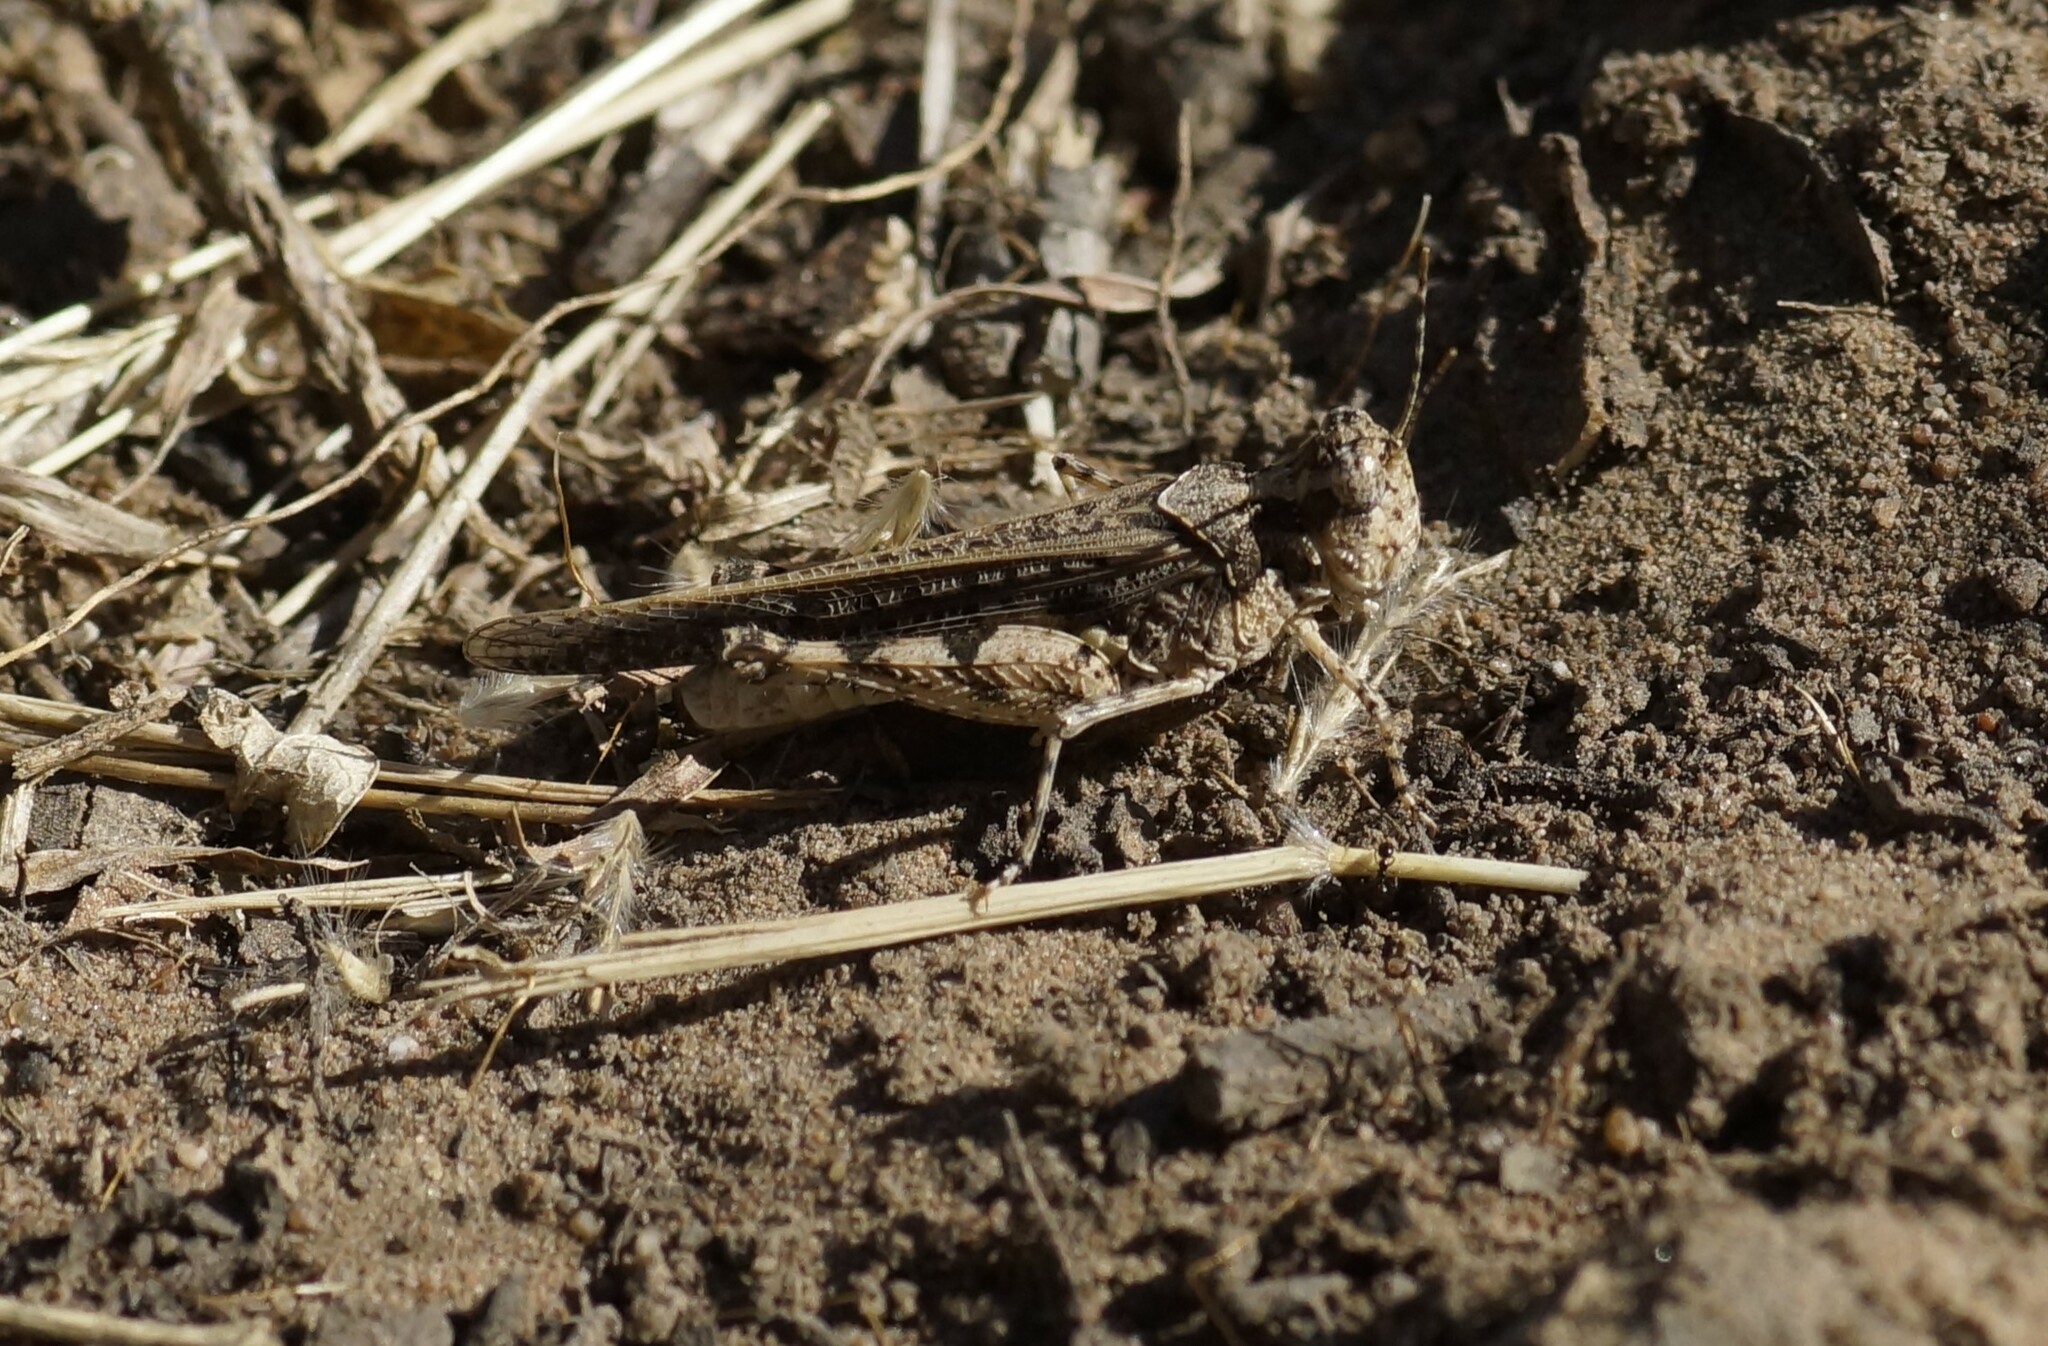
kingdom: Animalia
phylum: Arthropoda
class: Insecta
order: Orthoptera
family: Acrididae
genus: Pycnostictus
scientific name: Pycnostictus seriatus
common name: Common bandwing
